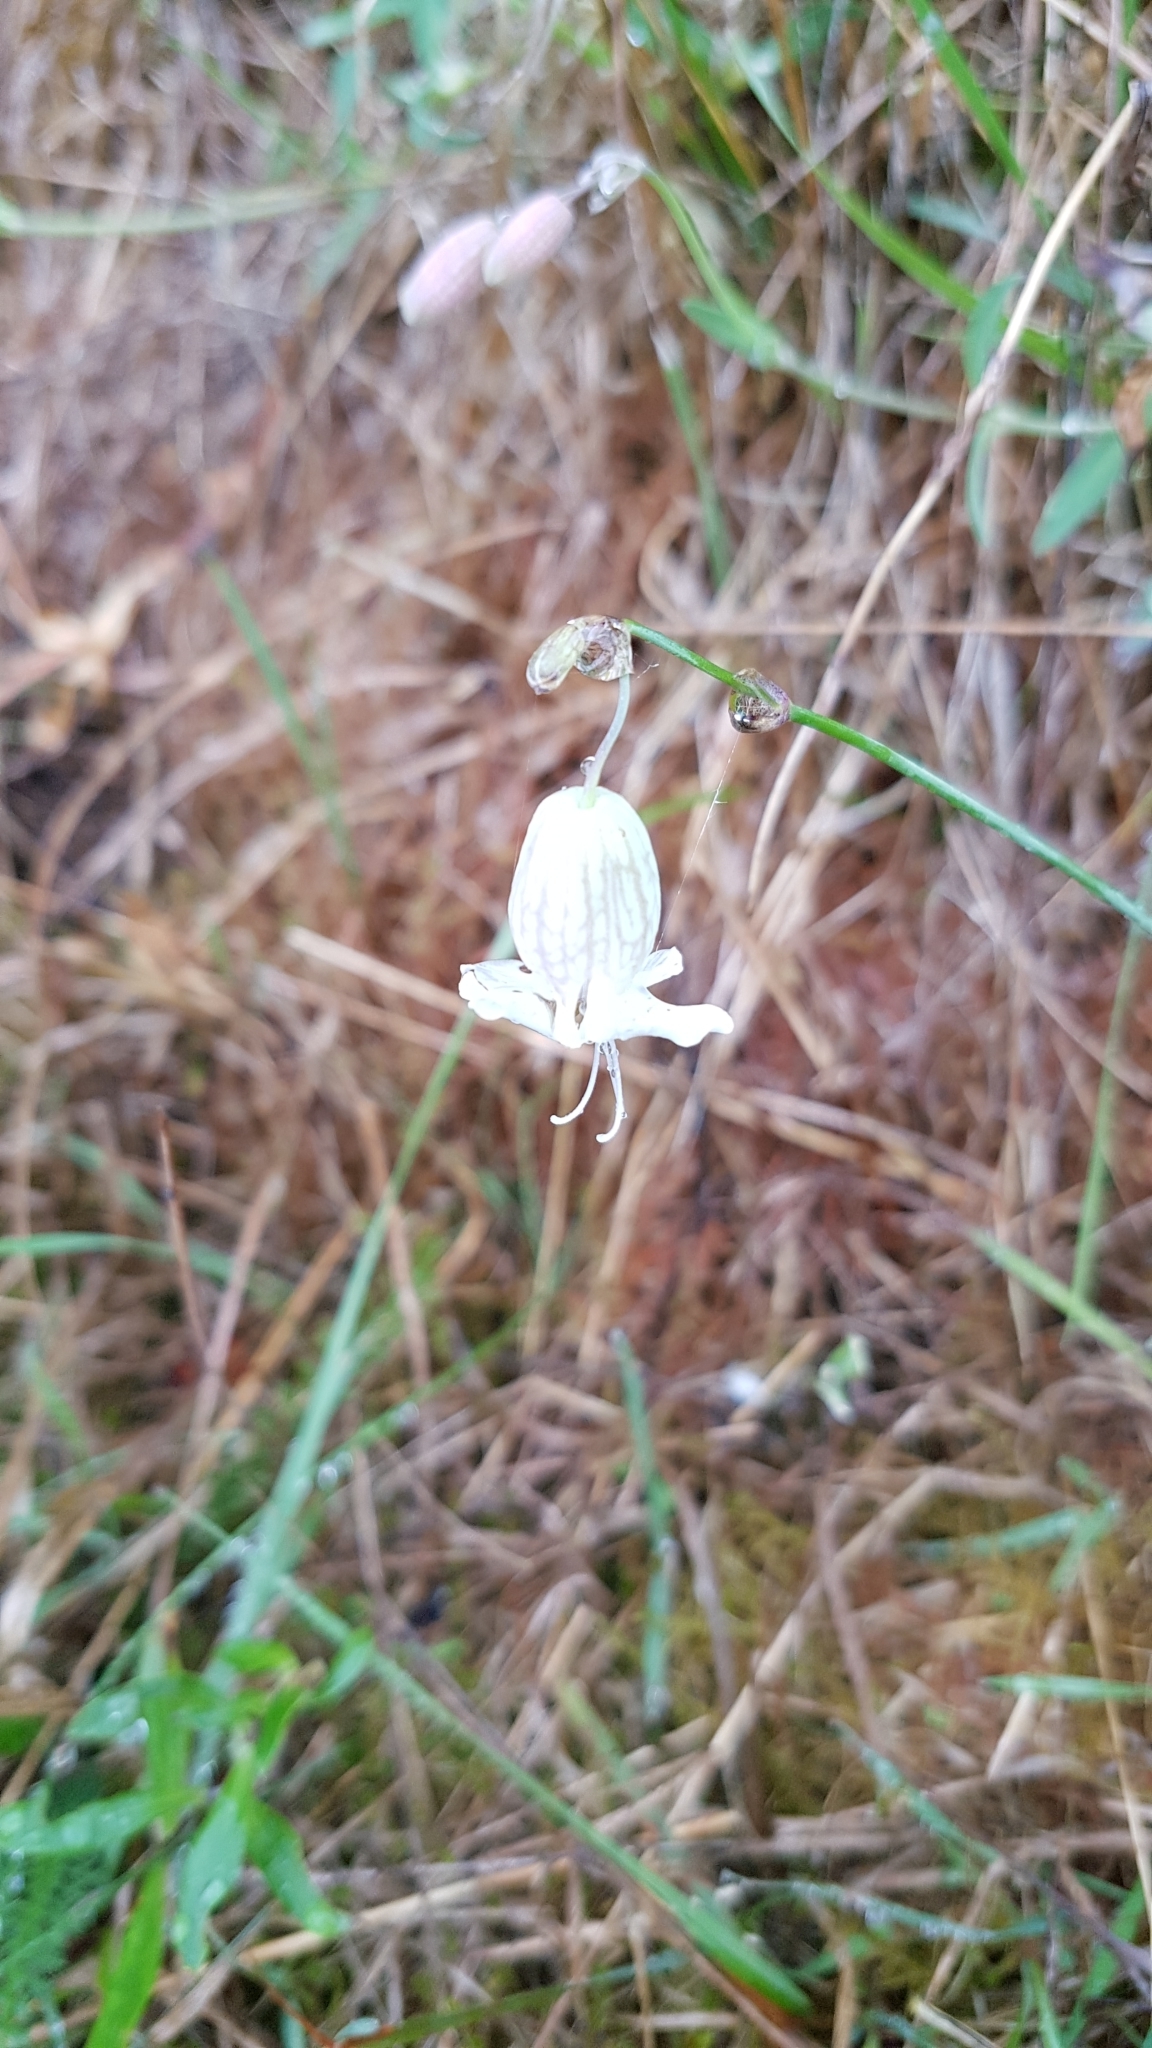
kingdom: Plantae
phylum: Tracheophyta
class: Magnoliopsida
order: Caryophyllales
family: Caryophyllaceae
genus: Silene
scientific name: Silene vulgaris
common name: Bladder campion
